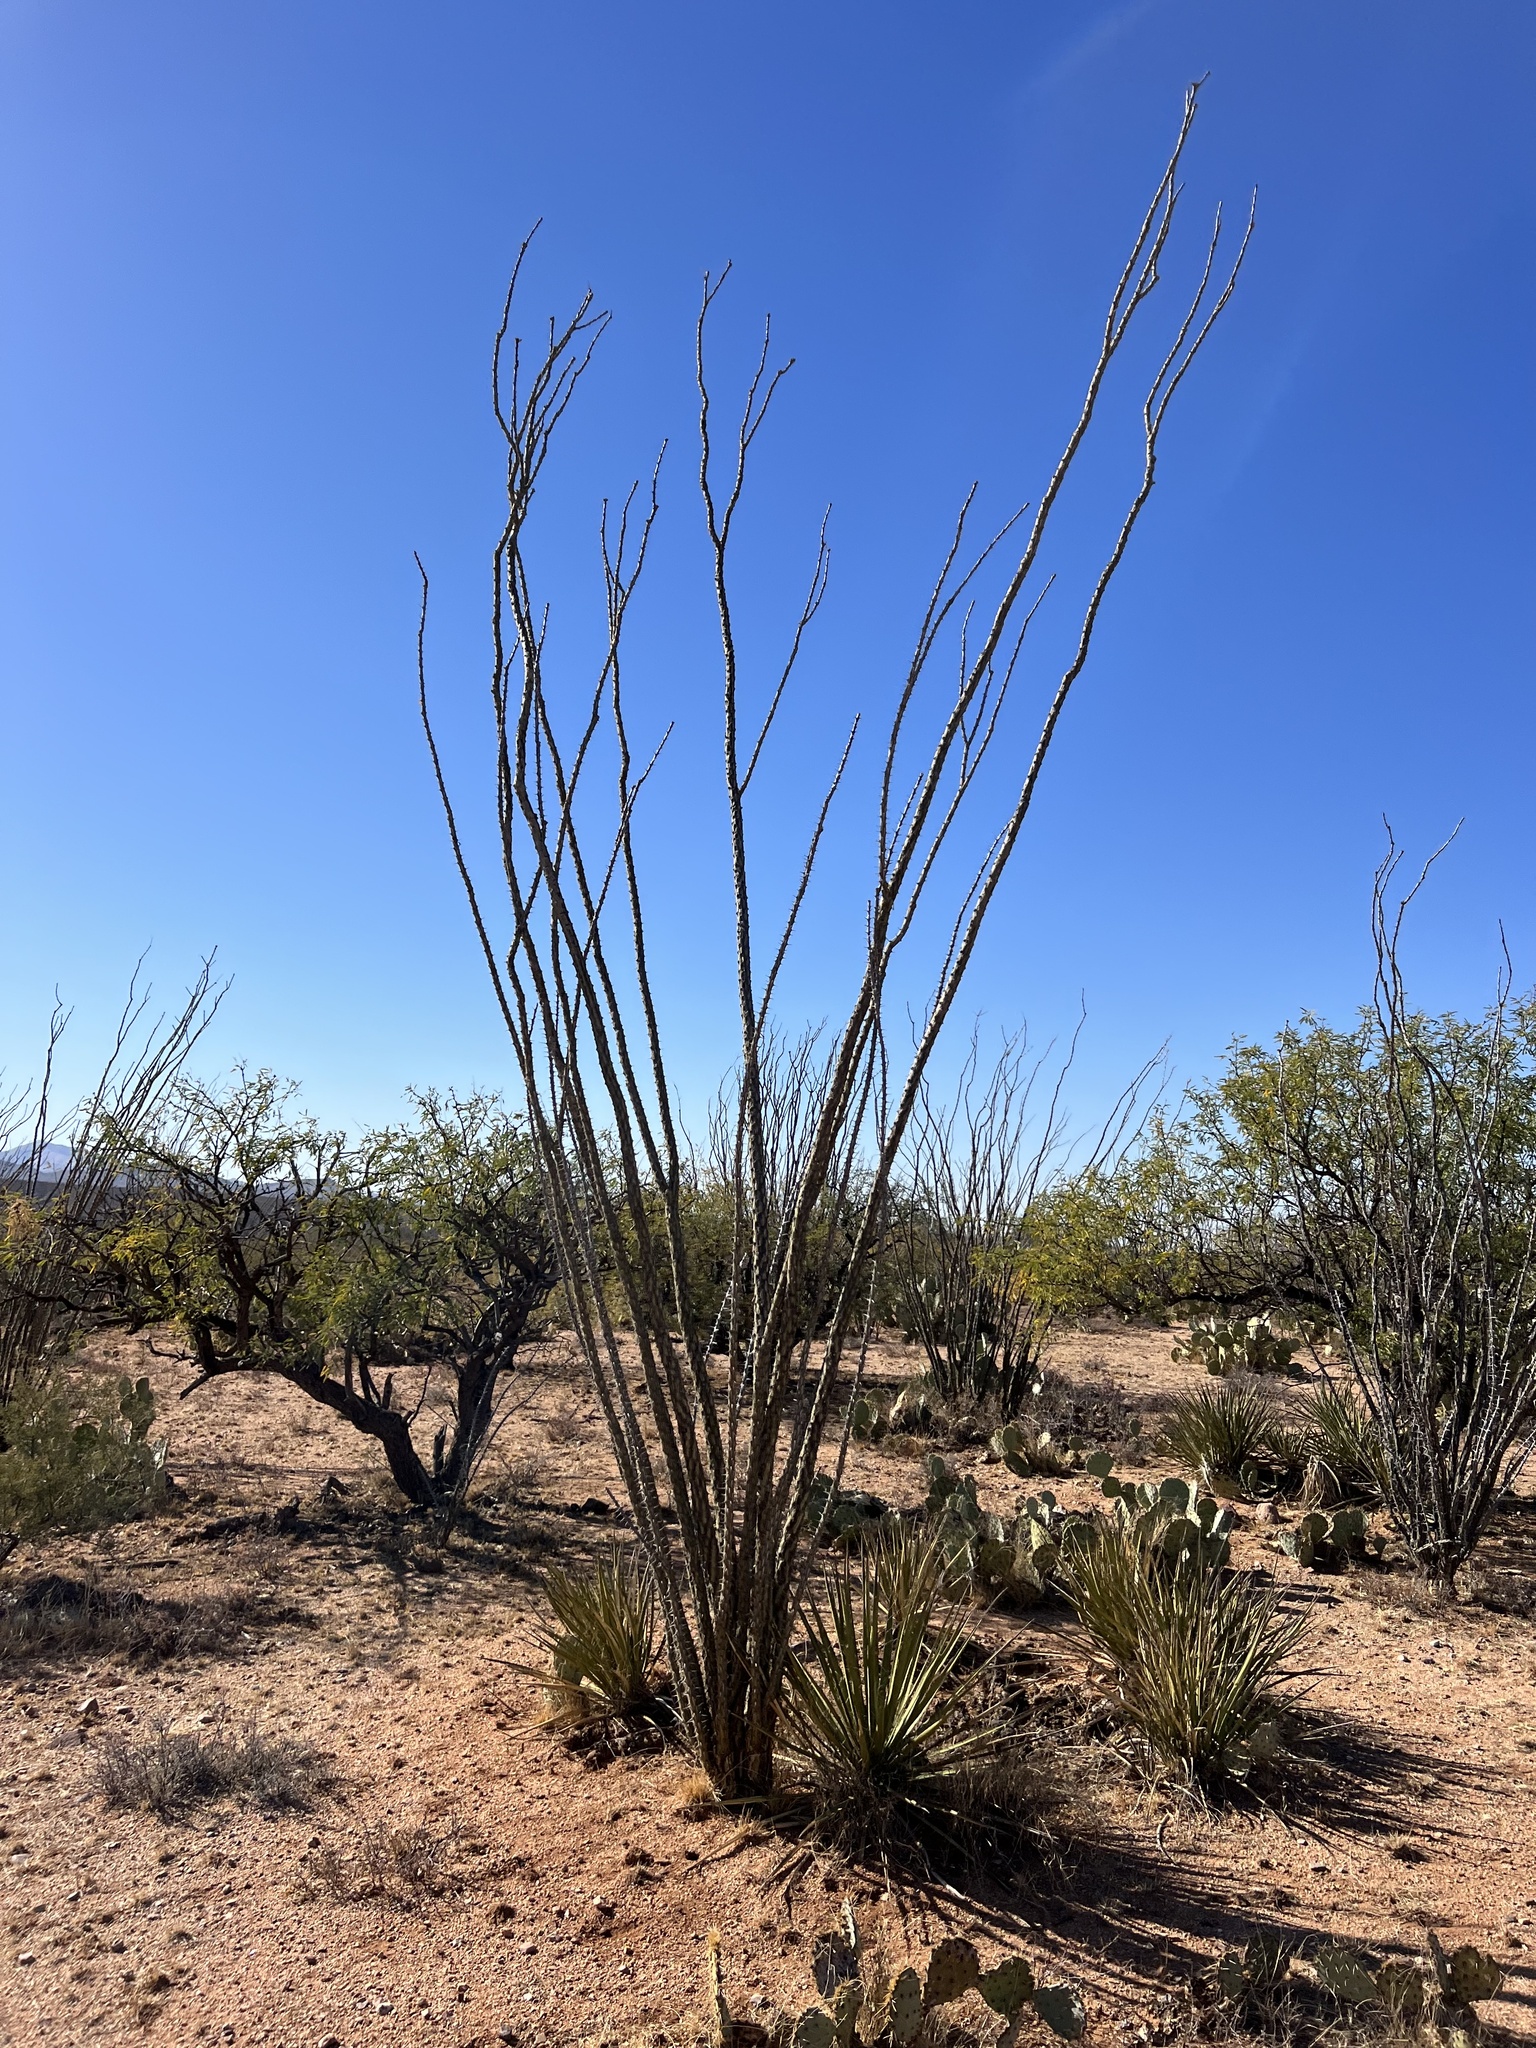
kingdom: Plantae
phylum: Tracheophyta
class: Magnoliopsida
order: Ericales
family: Fouquieriaceae
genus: Fouquieria
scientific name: Fouquieria splendens
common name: Vine-cactus
